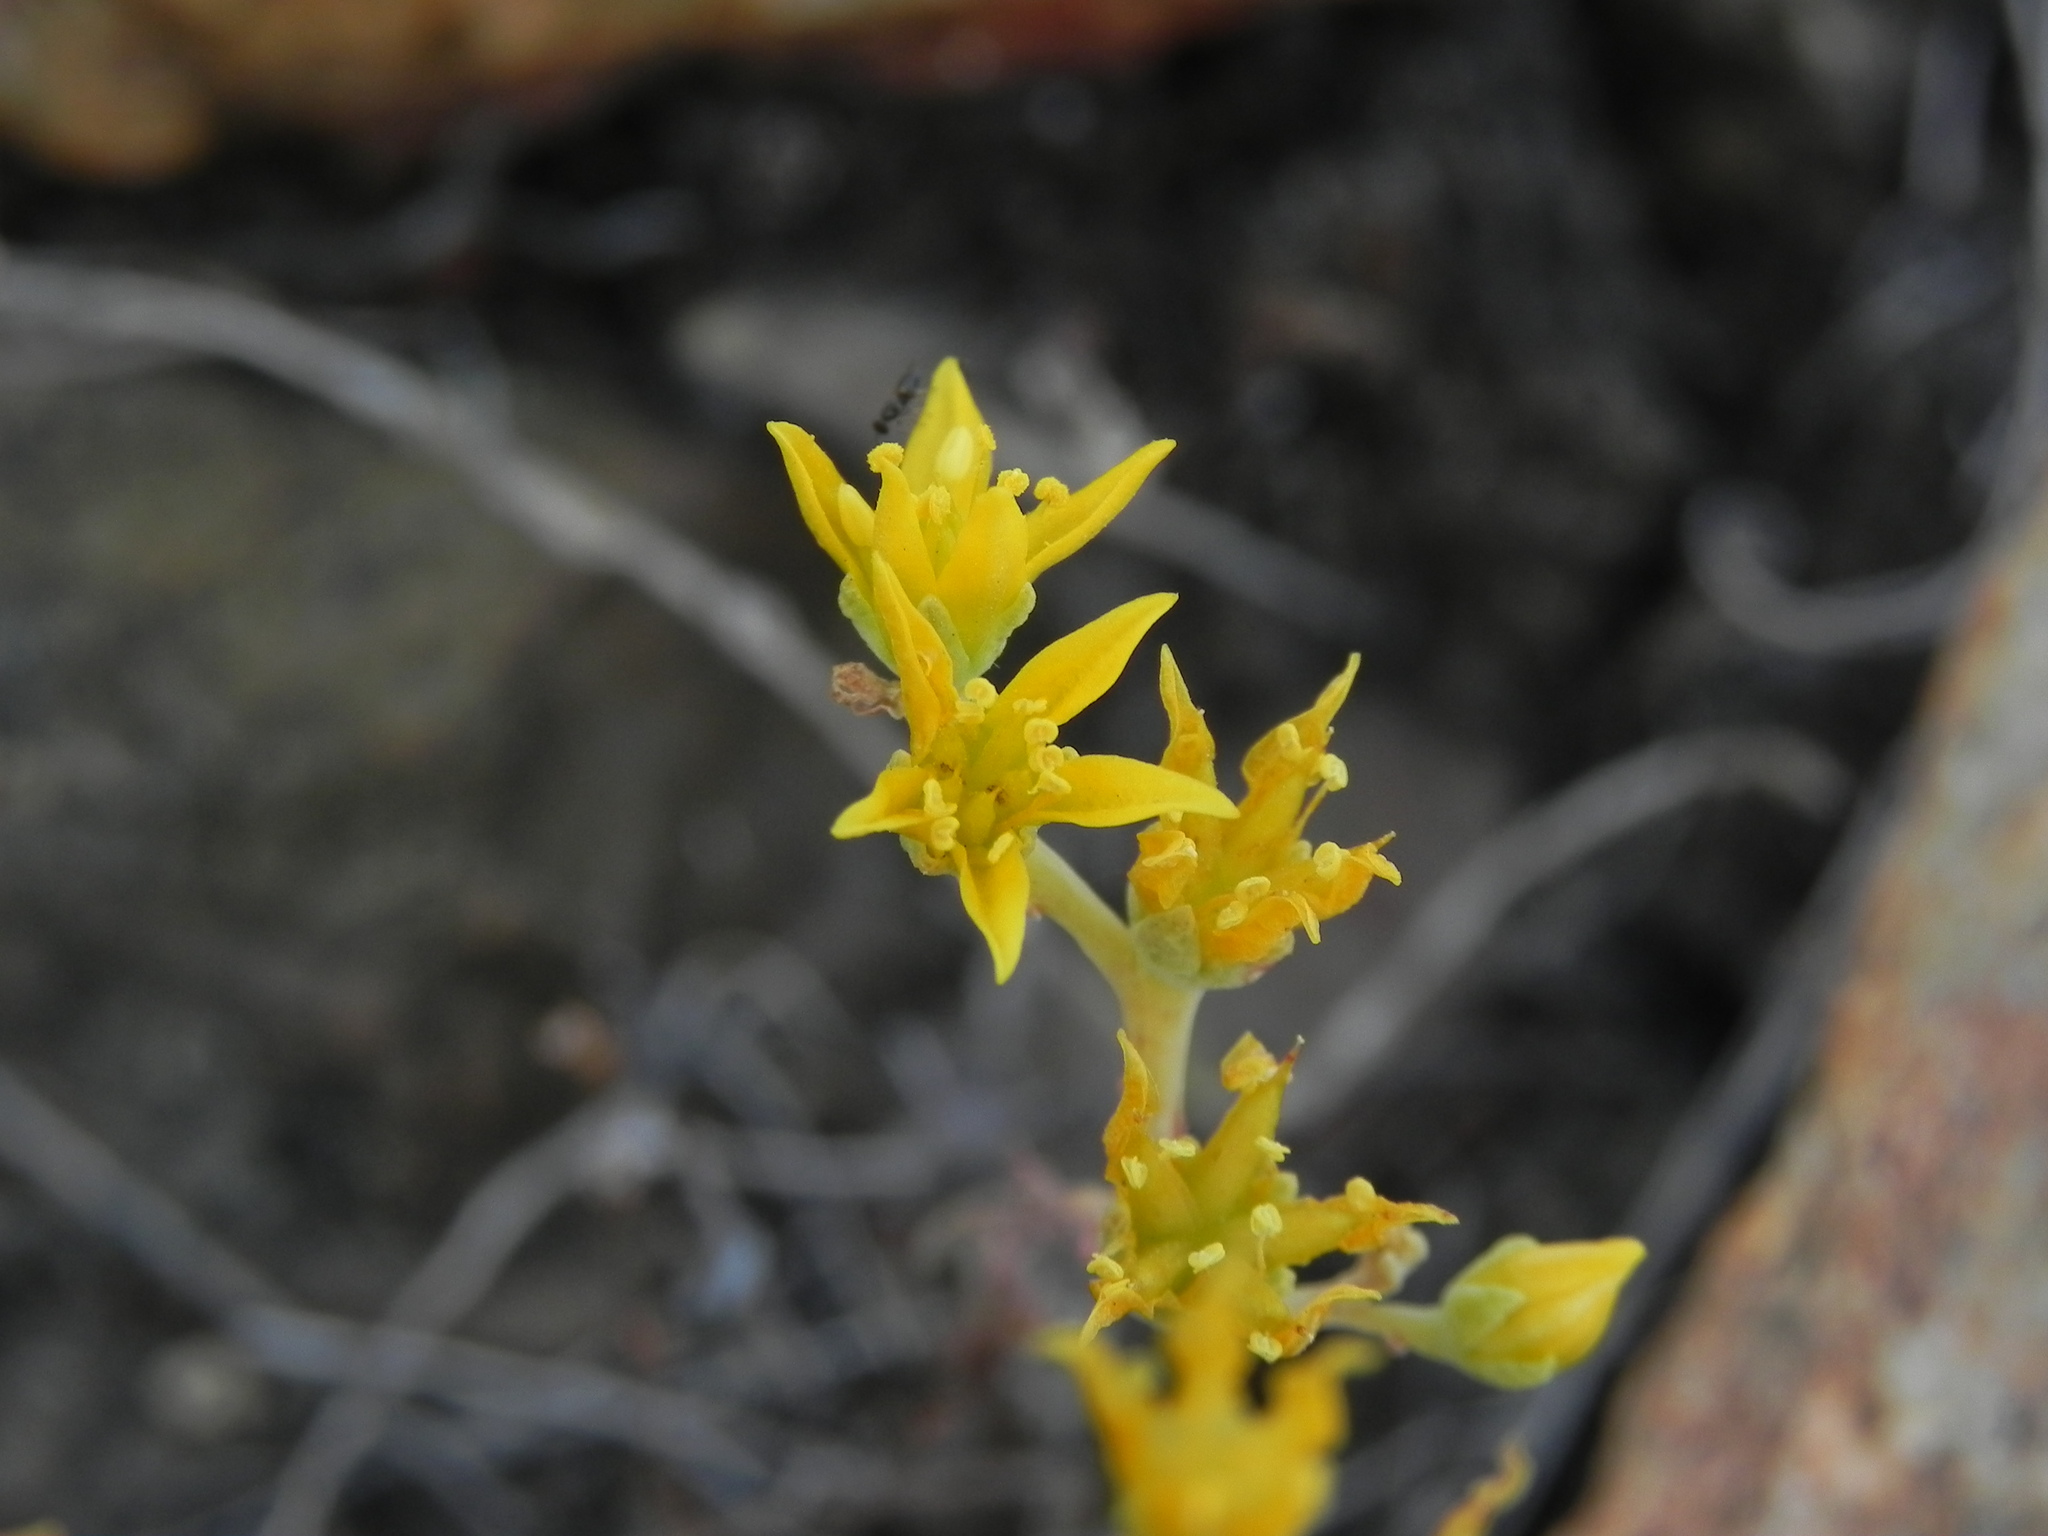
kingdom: Plantae
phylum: Tracheophyta
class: Magnoliopsida
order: Saxifragales
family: Crassulaceae
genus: Dudleya
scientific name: Dudleya variegata
